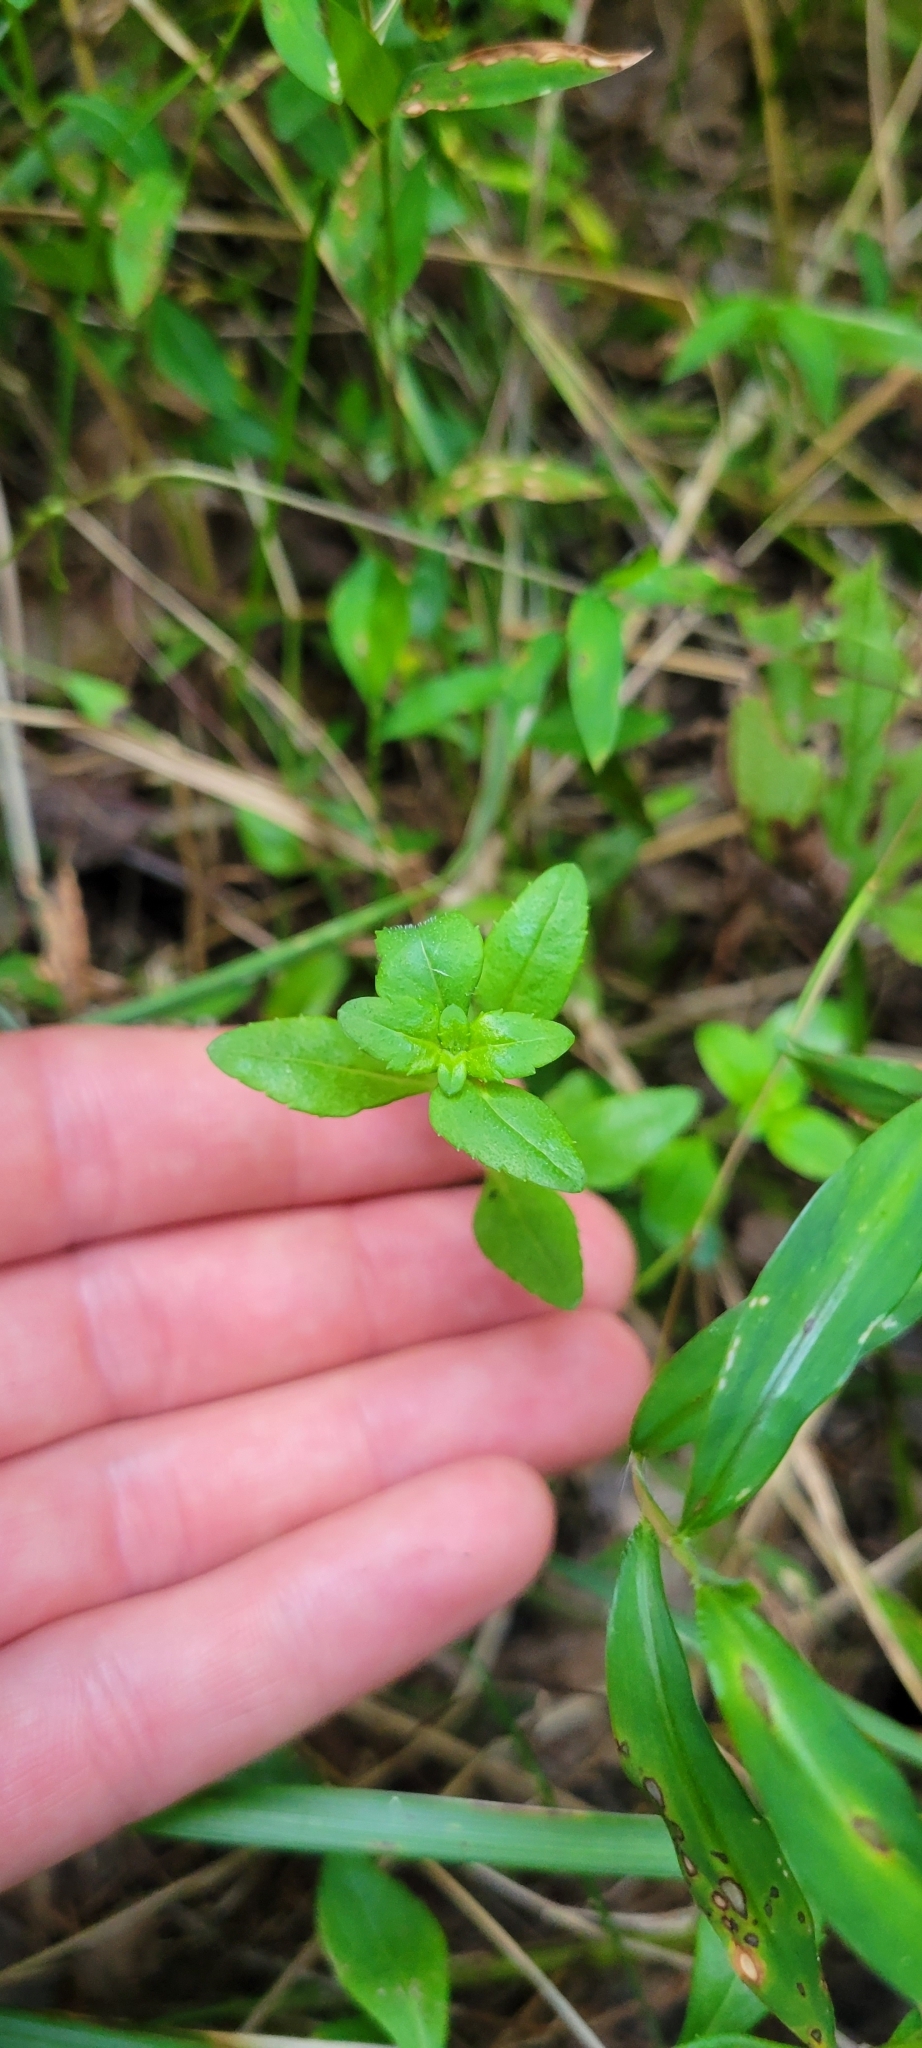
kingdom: Plantae
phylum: Tracheophyta
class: Magnoliopsida
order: Lamiales
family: Lamiaceae
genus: Clinopodium
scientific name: Clinopodium glabellum
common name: Ozark calamint
